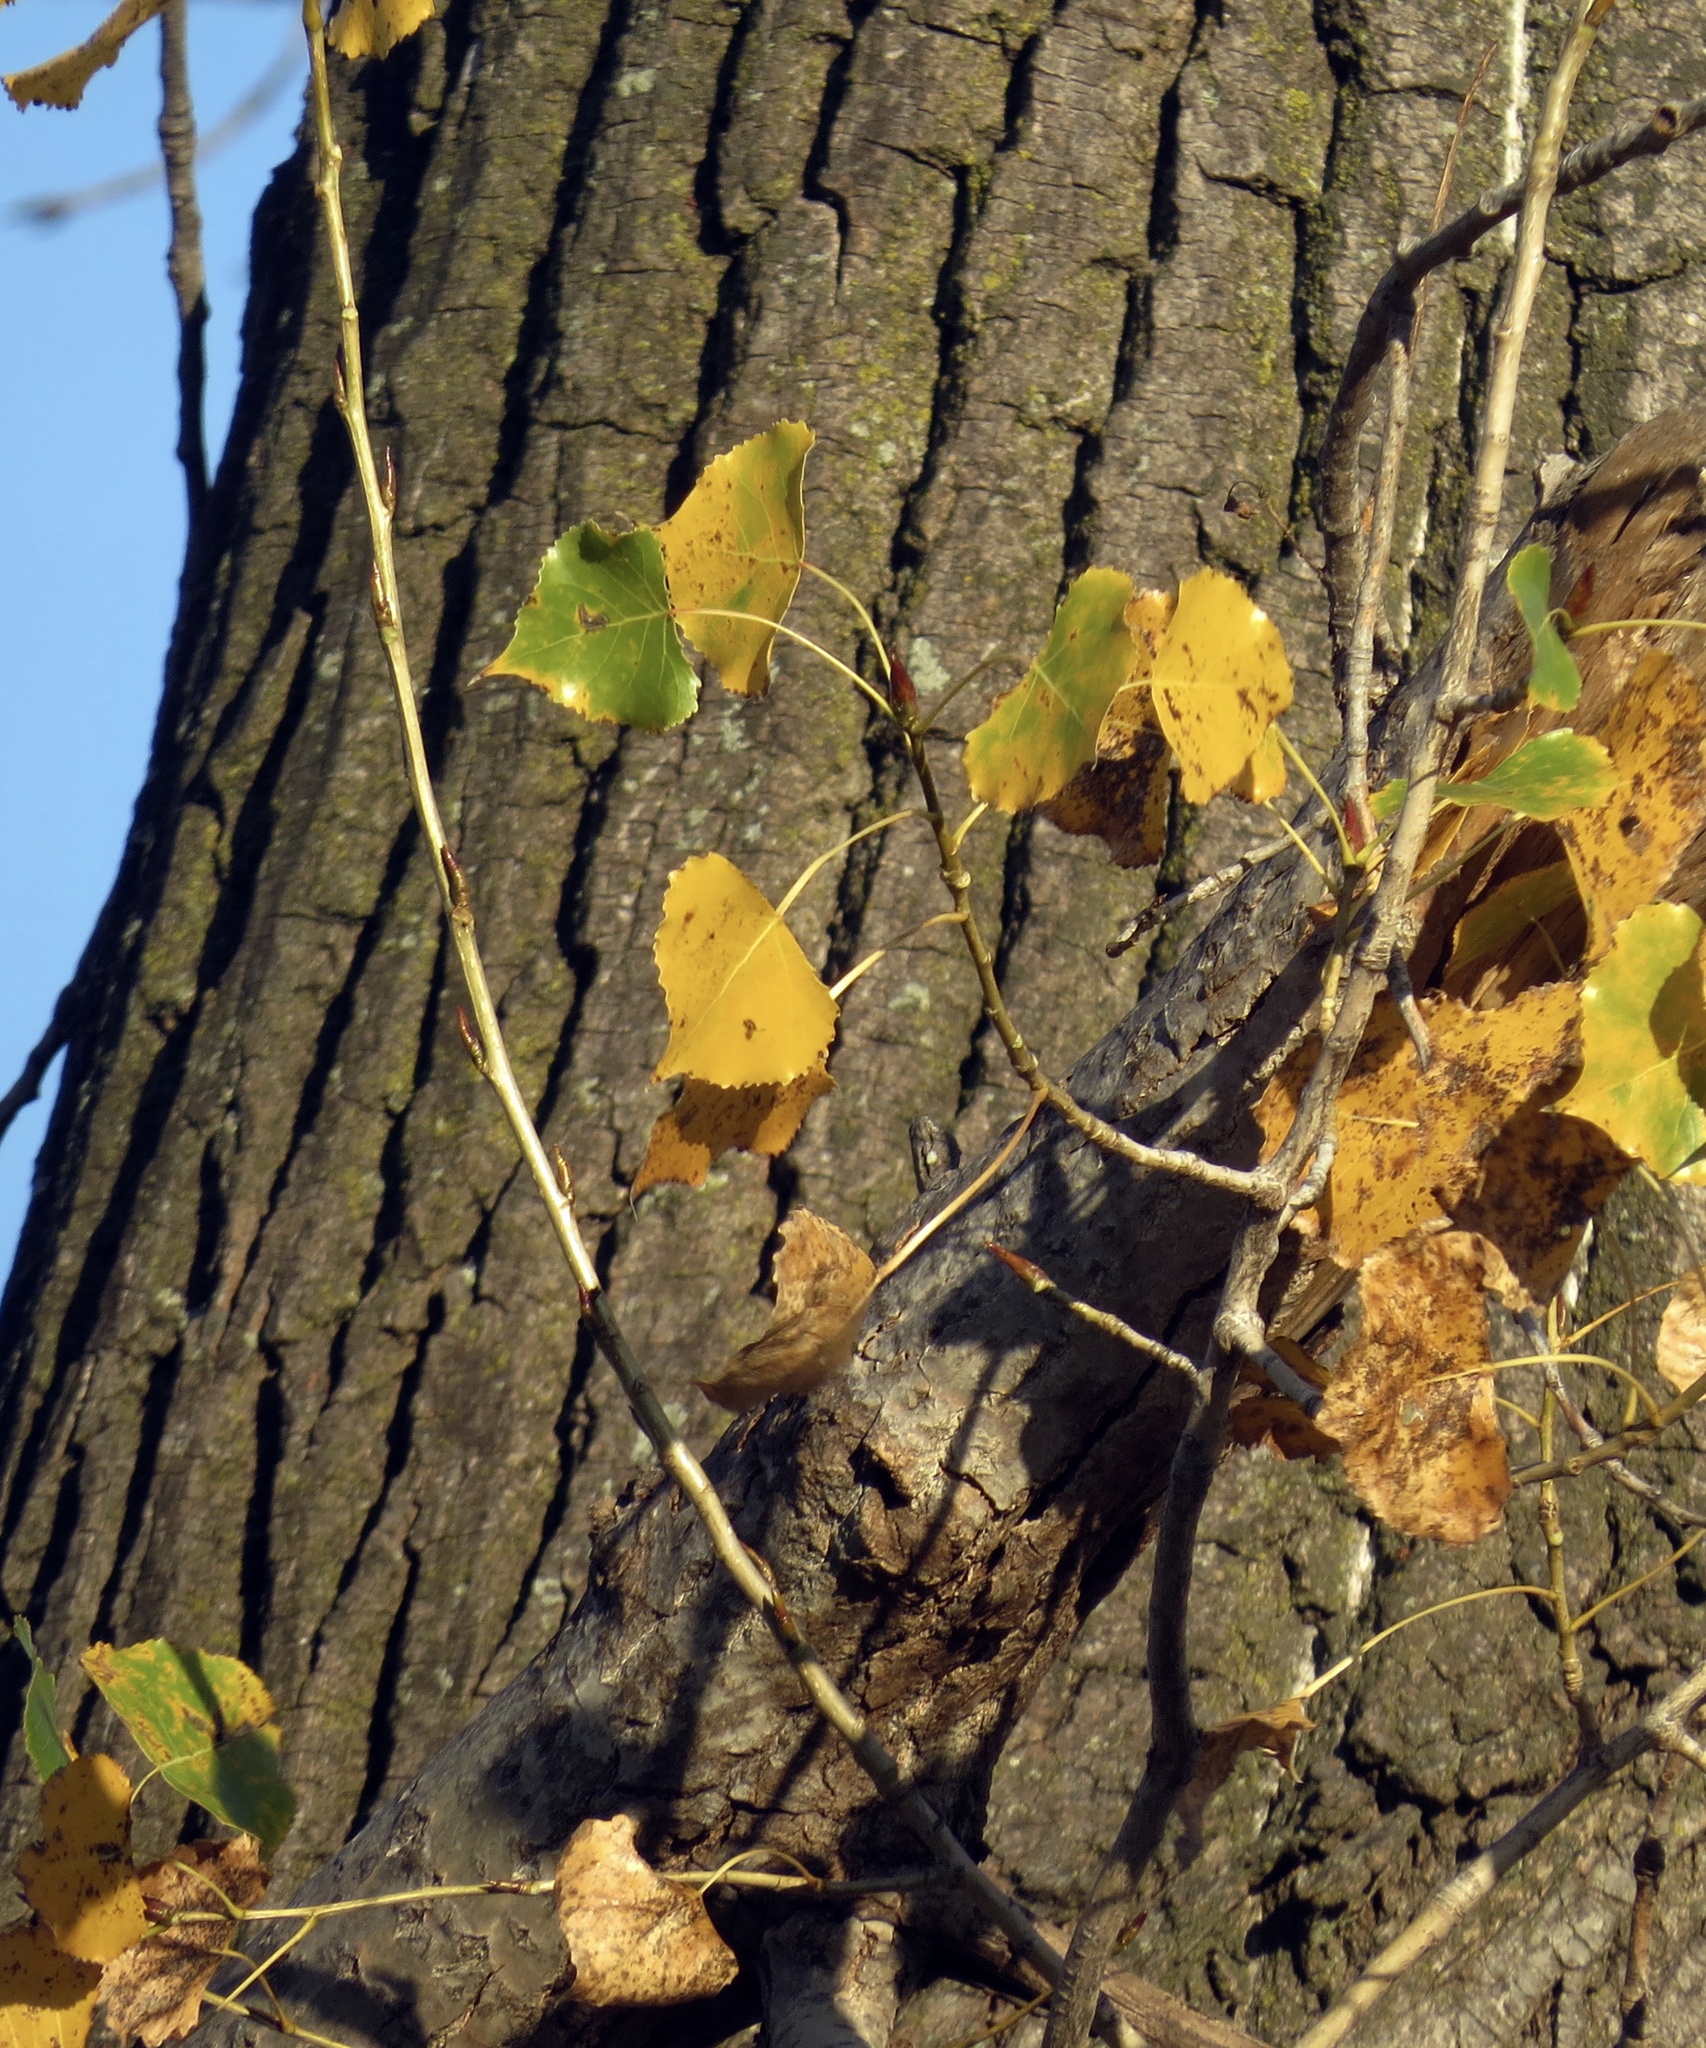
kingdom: Plantae
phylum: Tracheophyta
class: Magnoliopsida
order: Malpighiales
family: Salicaceae
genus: Populus
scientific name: Populus deltoides
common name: Eastern cottonwood
